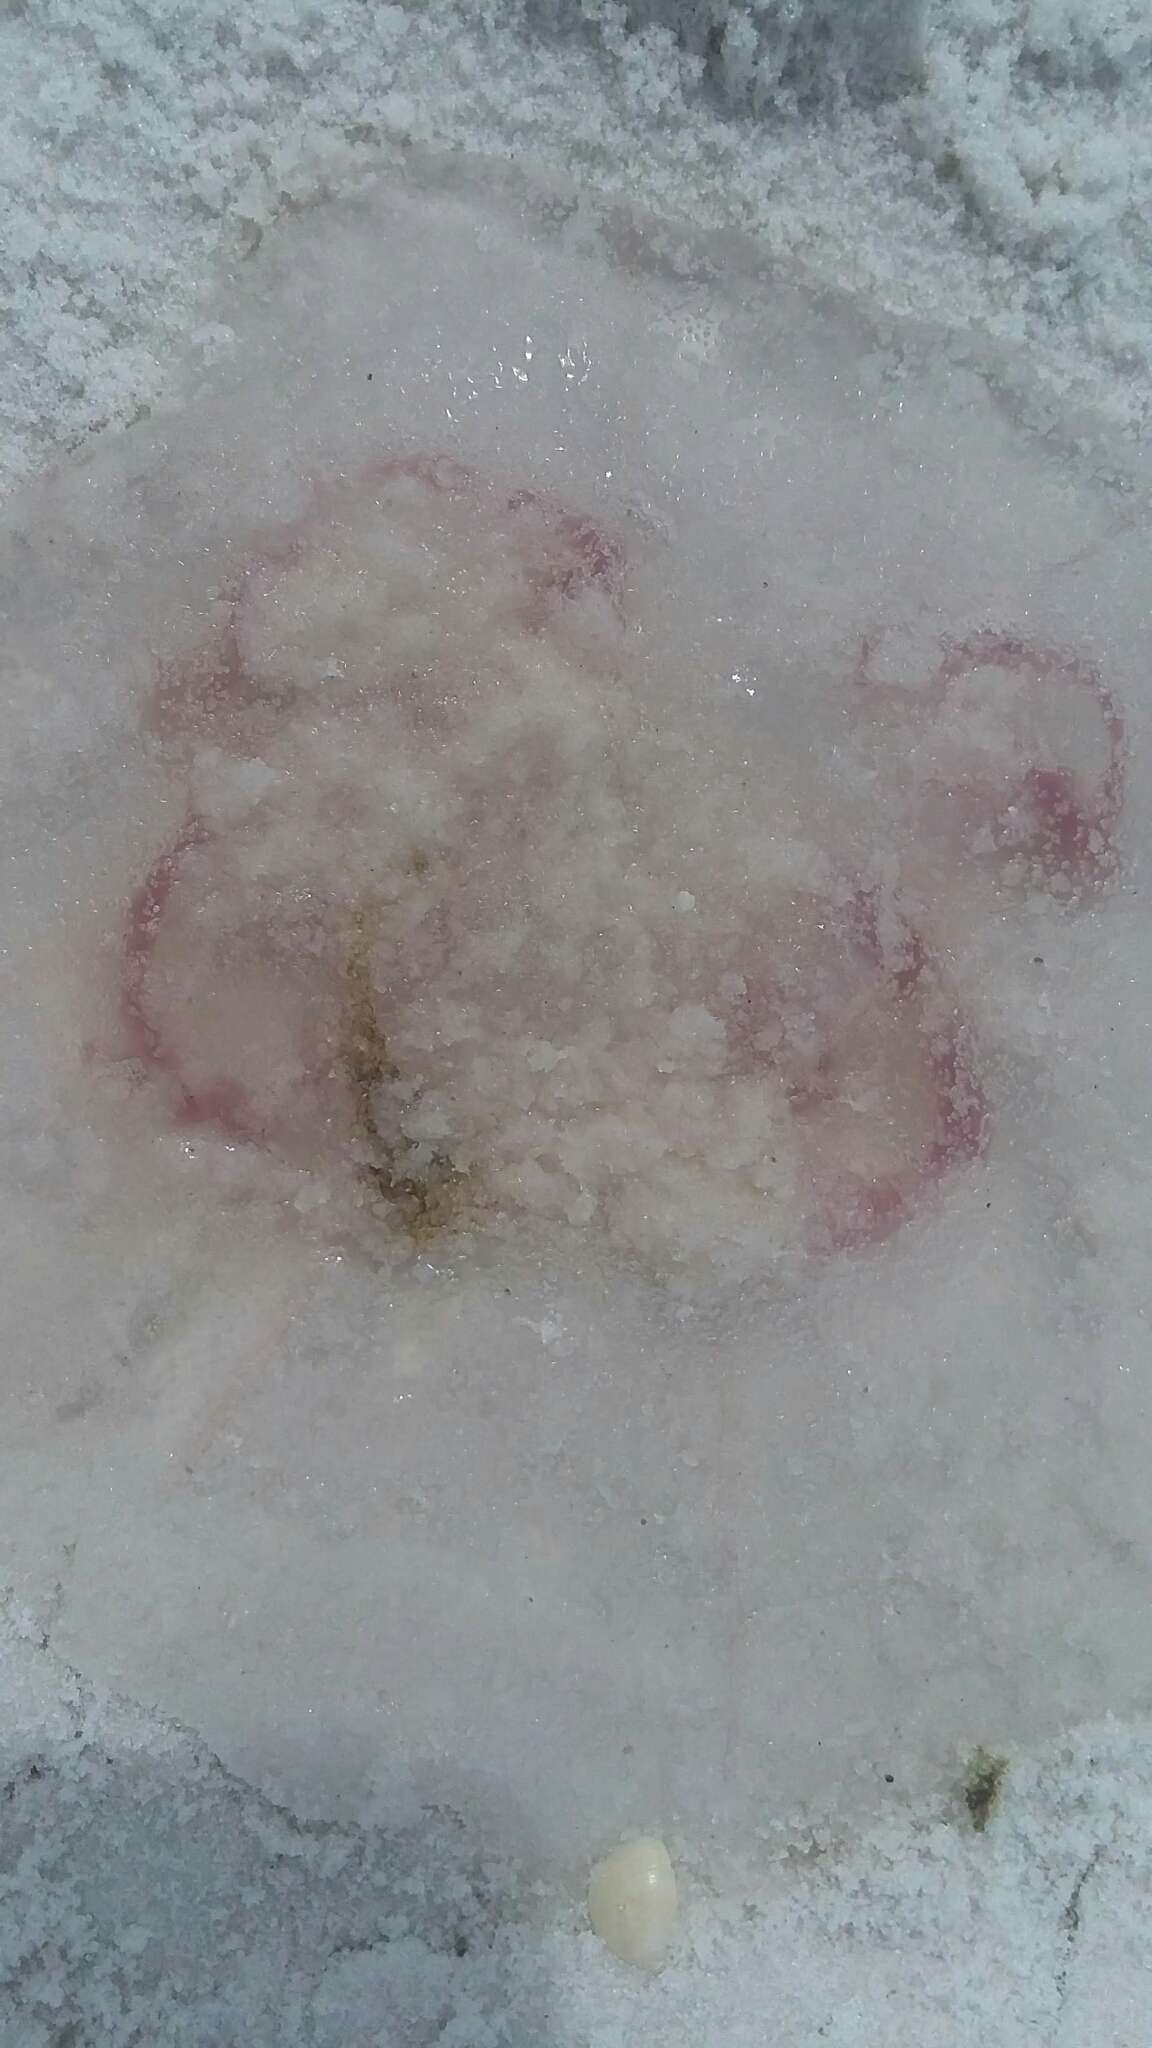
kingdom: Animalia
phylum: Cnidaria
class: Scyphozoa
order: Semaeostomeae
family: Ulmaridae
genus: Aurelia
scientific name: Aurelia marginalis
